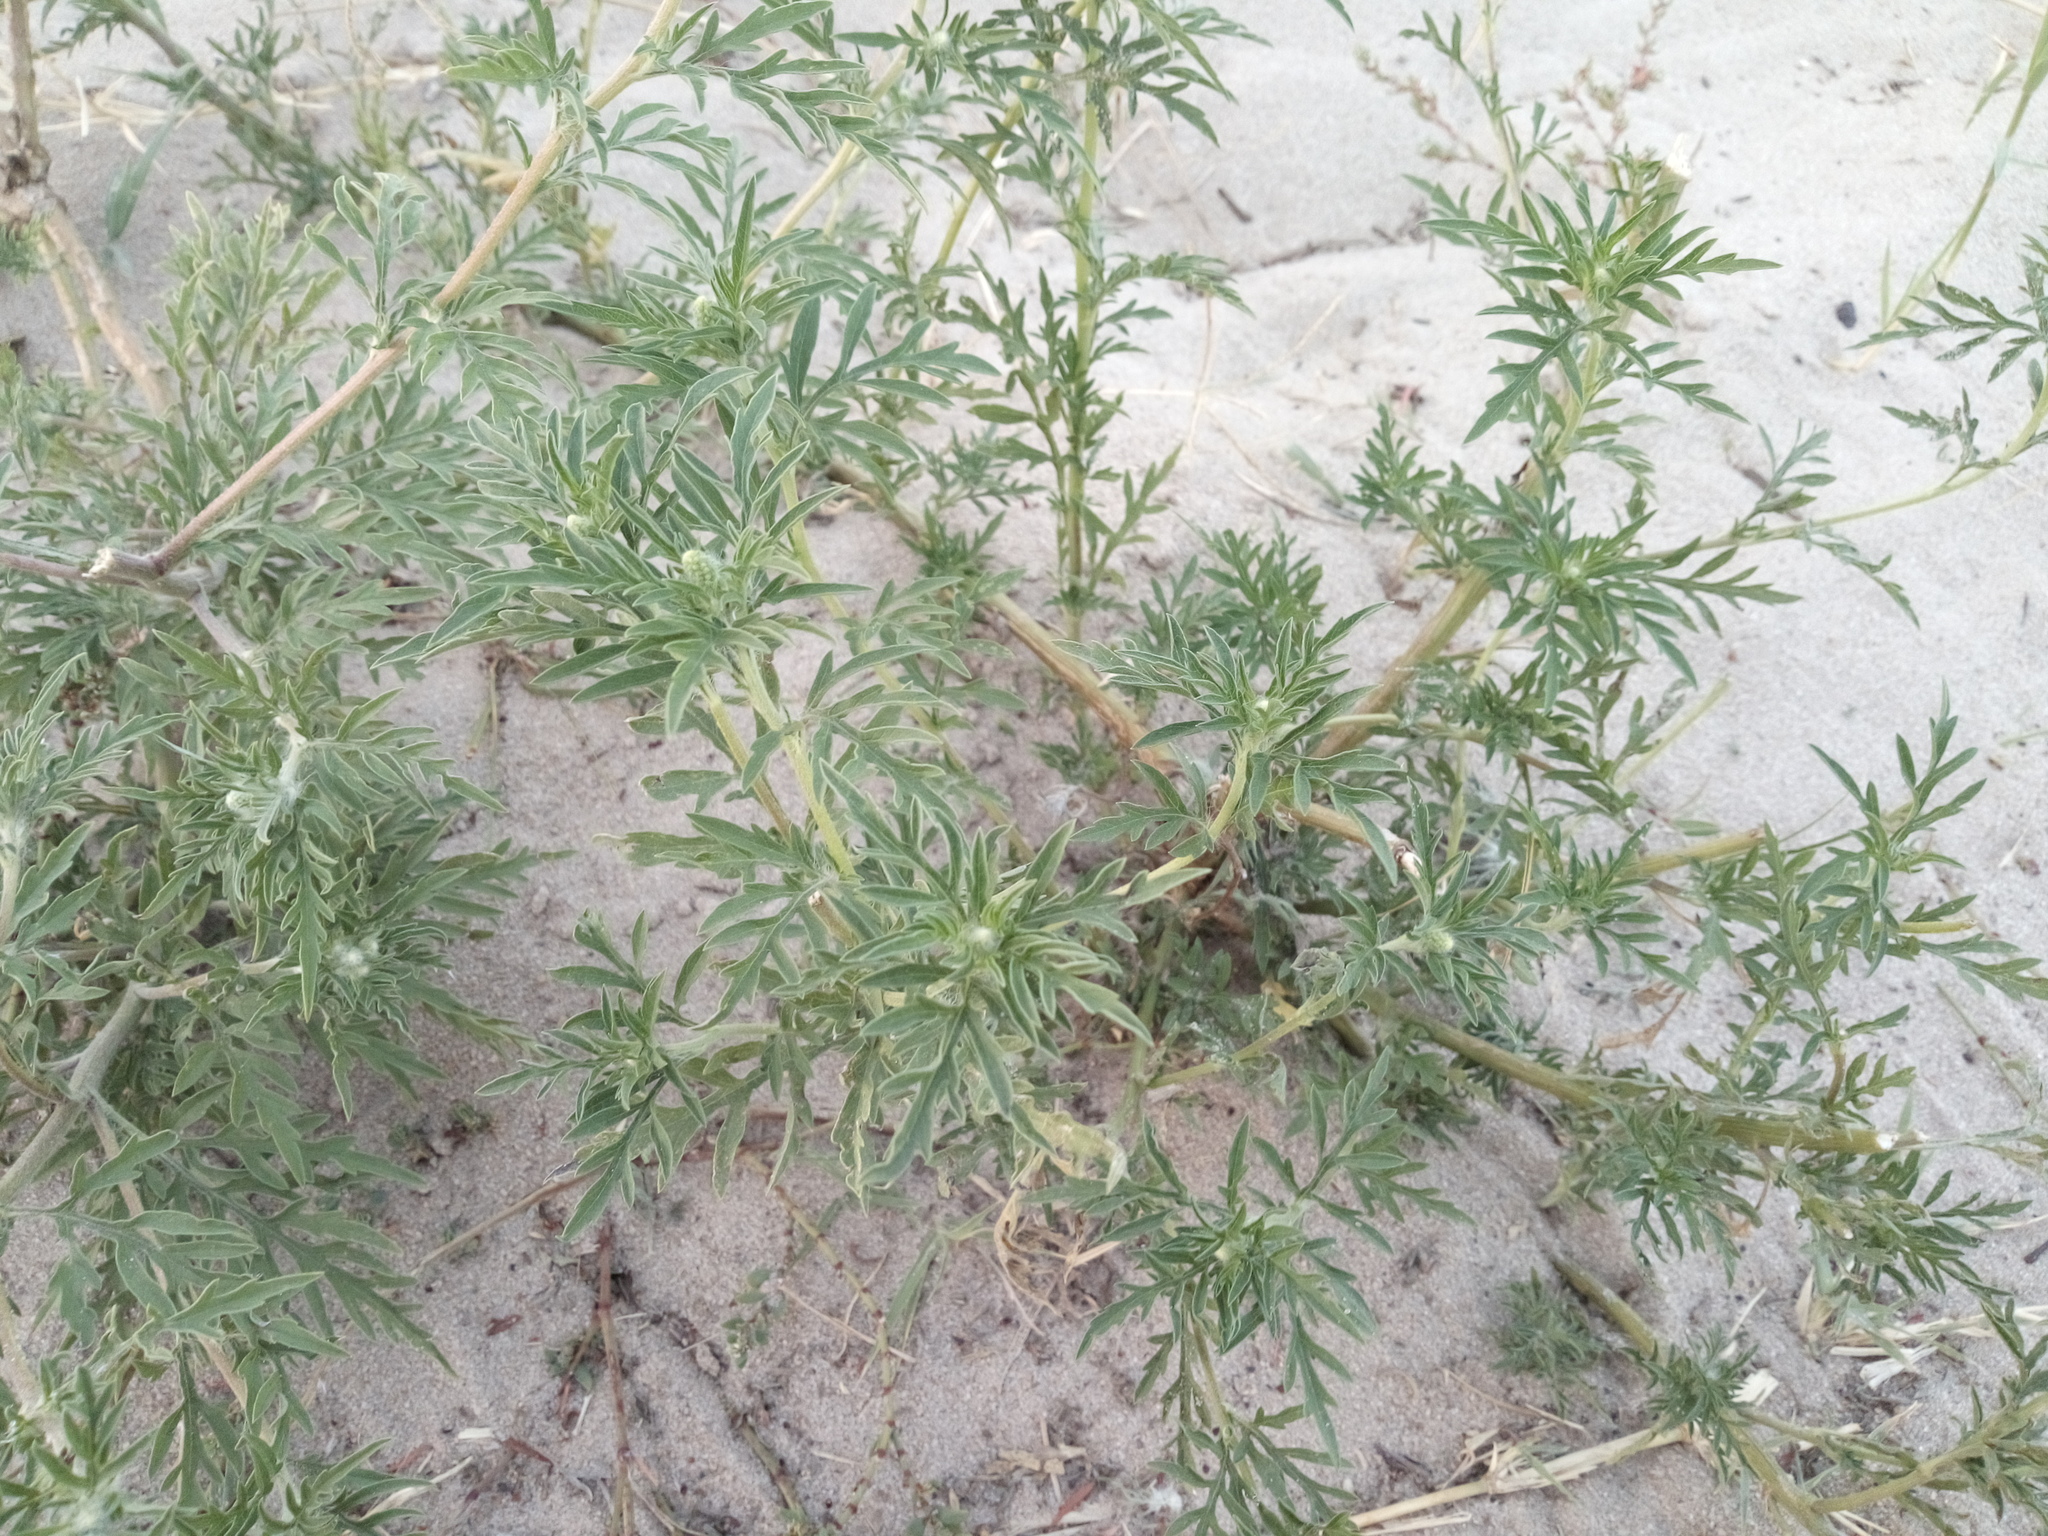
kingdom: Plantae
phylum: Tracheophyta
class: Magnoliopsida
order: Asterales
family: Asteraceae
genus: Ambrosia
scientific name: Ambrosia artemisiifolia
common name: Annual ragweed
